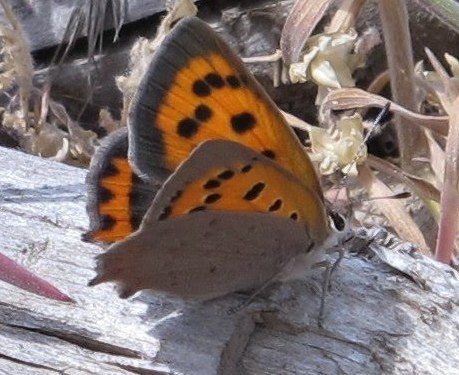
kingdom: Animalia
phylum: Arthropoda
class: Insecta
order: Lepidoptera
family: Lycaenidae
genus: Lycaena
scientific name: Lycaena phlaeas
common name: Small copper
